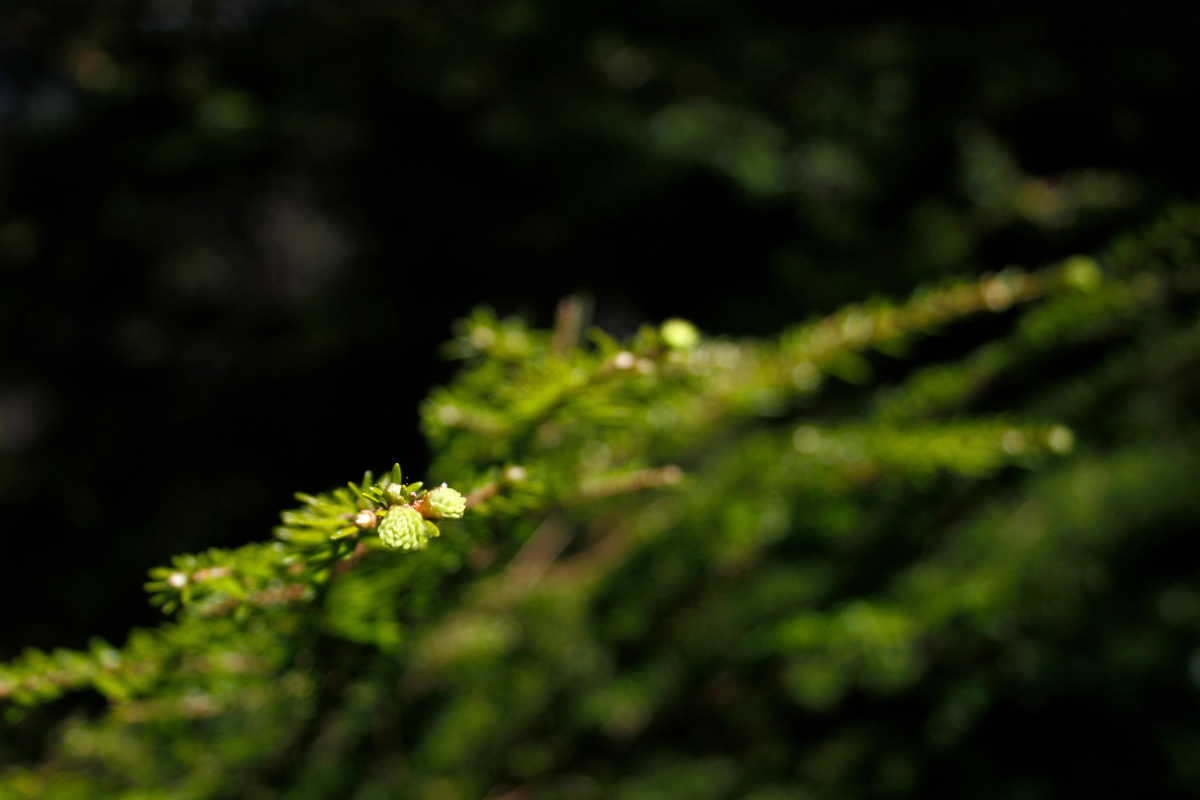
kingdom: Plantae
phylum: Tracheophyta
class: Pinopsida
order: Pinales
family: Pinaceae
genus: Tsuga
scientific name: Tsuga heterophylla
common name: Western hemlock
